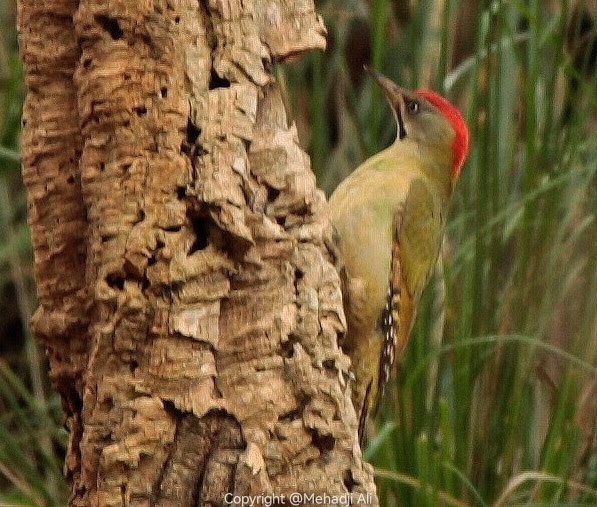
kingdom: Animalia
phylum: Chordata
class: Aves
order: Piciformes
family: Picidae
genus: Picus
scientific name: Picus vaillantii
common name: Levaillant's woodpecker
